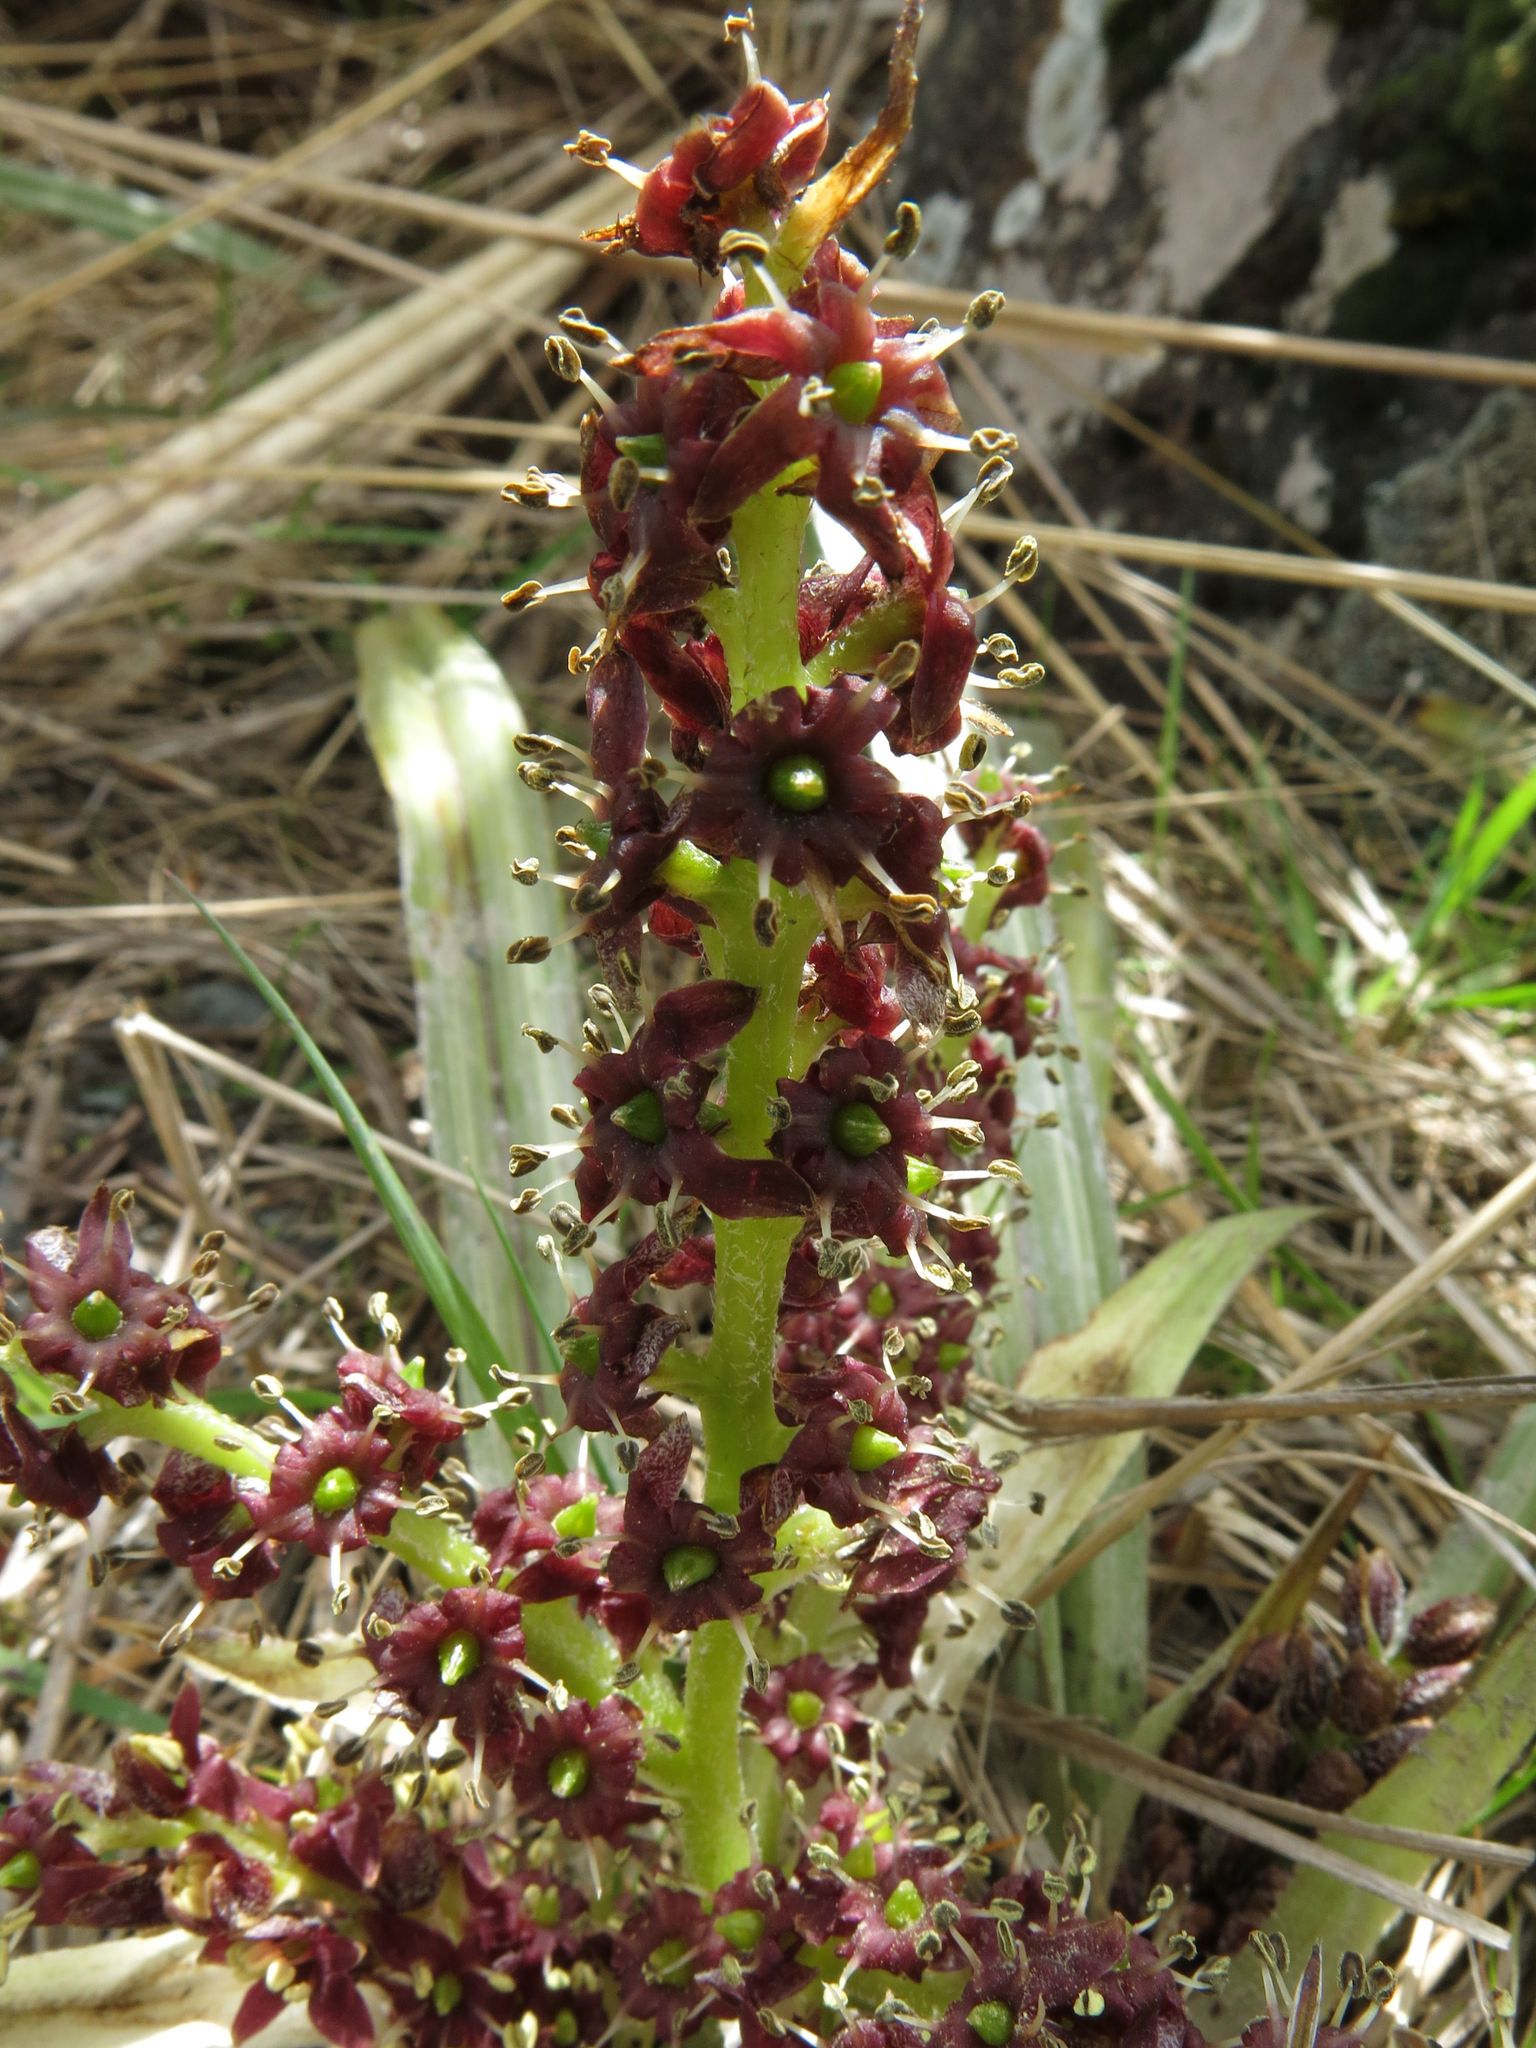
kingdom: Plantae
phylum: Tracheophyta
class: Liliopsida
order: Asparagales
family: Asteliaceae
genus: Astelia
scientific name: Astelia nervosa
